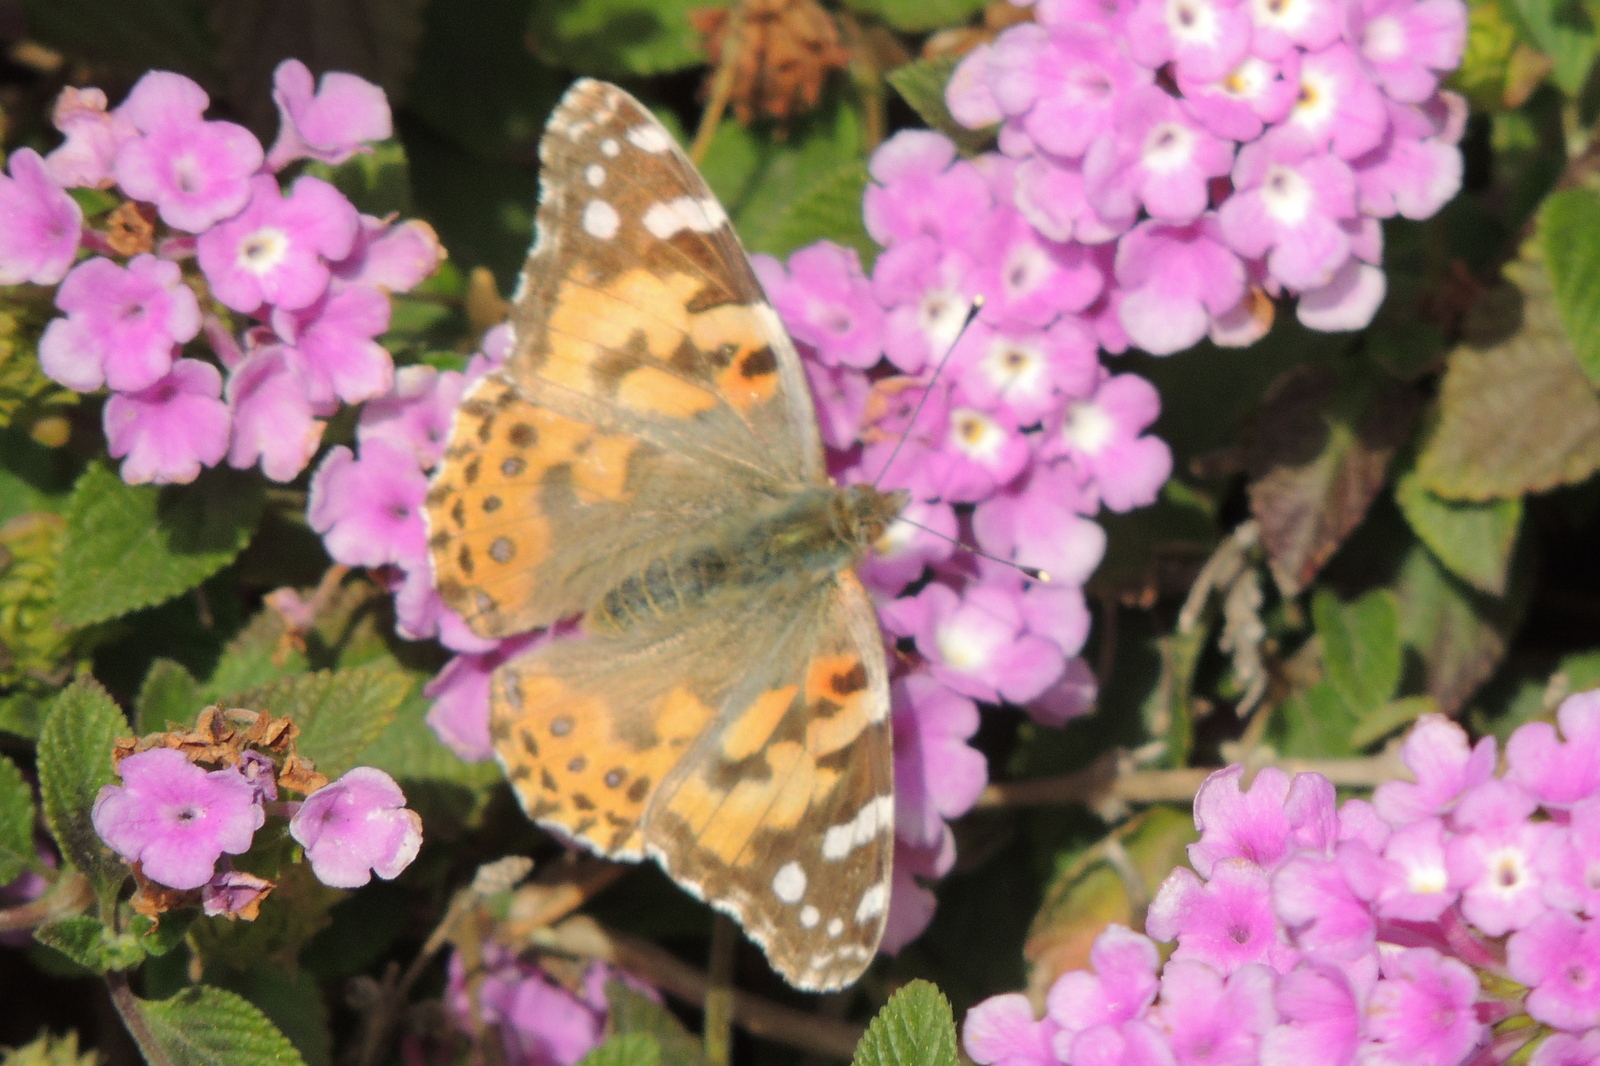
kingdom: Animalia
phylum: Arthropoda
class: Insecta
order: Lepidoptera
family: Nymphalidae
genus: Vanessa
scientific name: Vanessa cardui
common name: Painted lady
